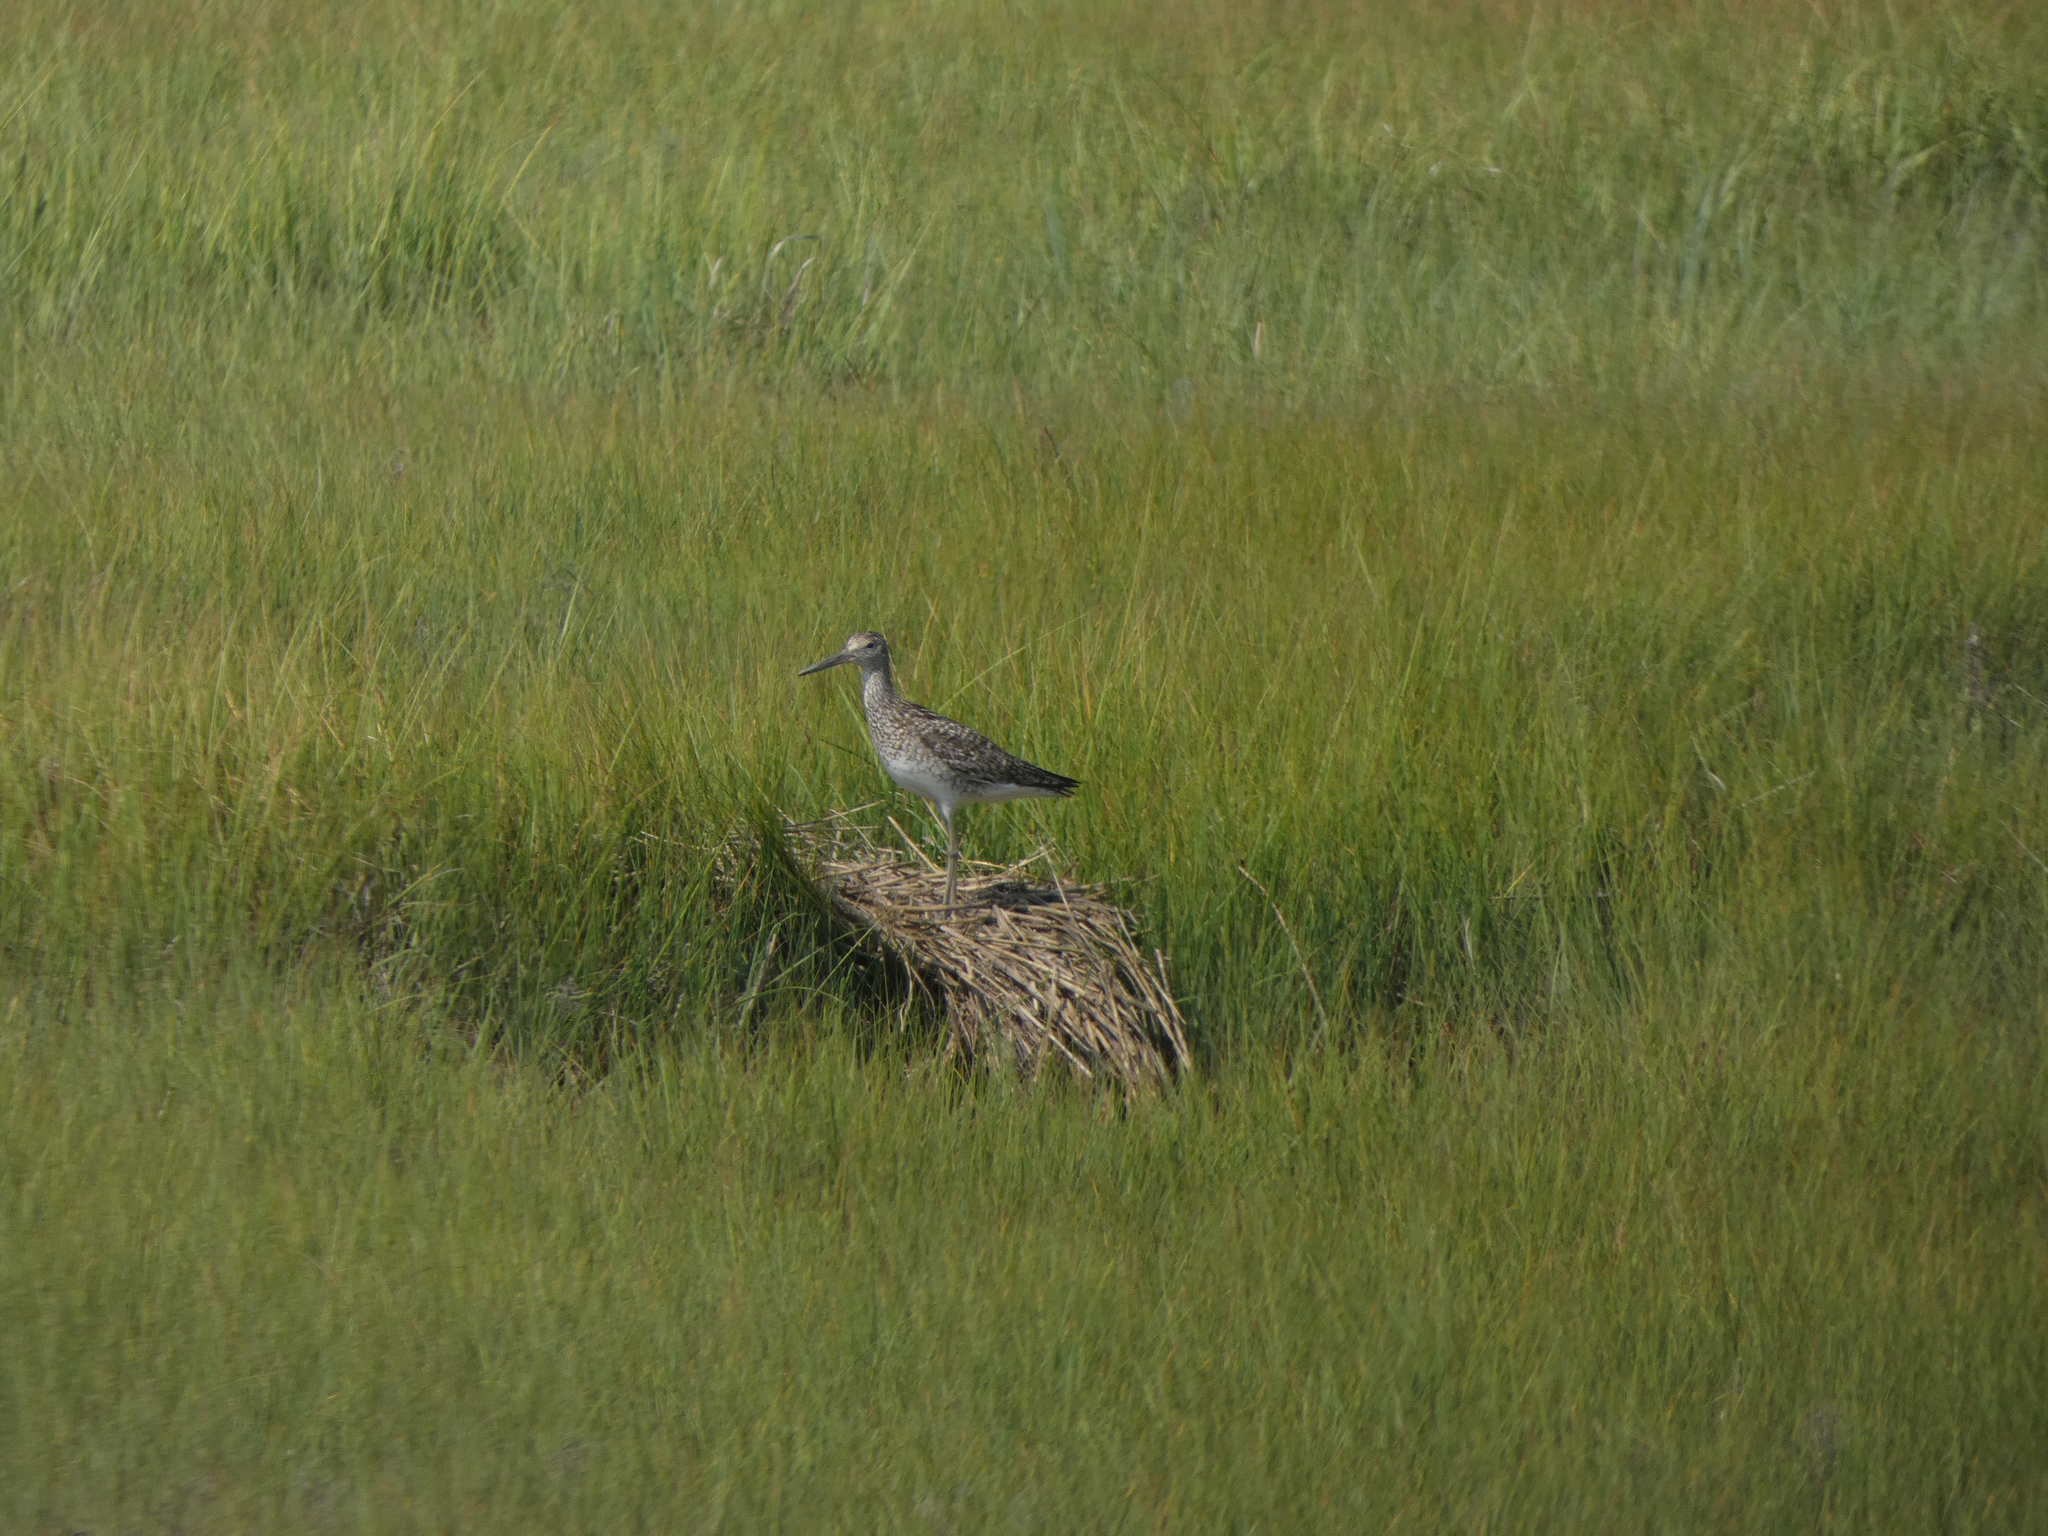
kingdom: Animalia
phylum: Chordata
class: Aves
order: Charadriiformes
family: Scolopacidae
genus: Tringa
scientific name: Tringa semipalmata
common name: Willet
